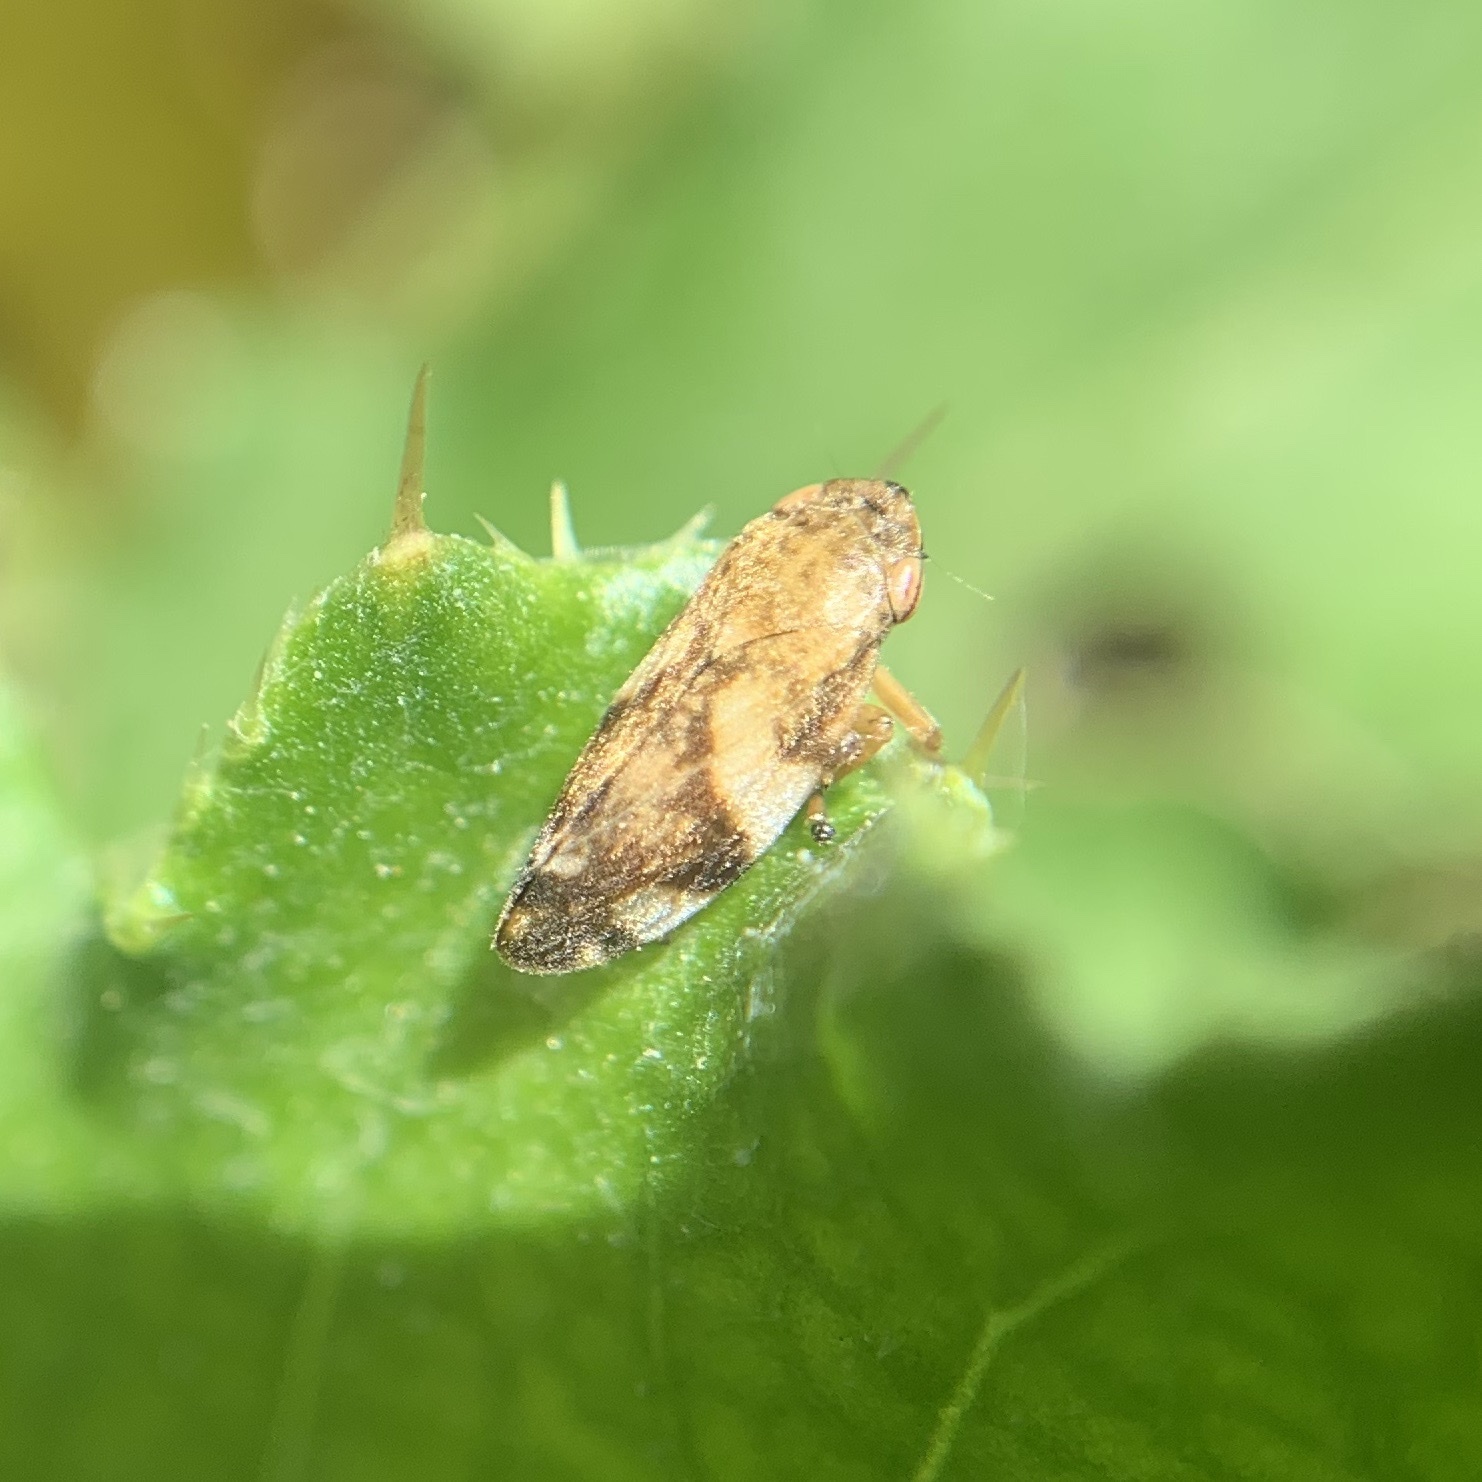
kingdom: Animalia
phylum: Arthropoda
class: Insecta
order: Hemiptera
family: Aphrophoridae
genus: Philaenus
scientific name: Philaenus spumarius
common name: Meadow spittlebug
